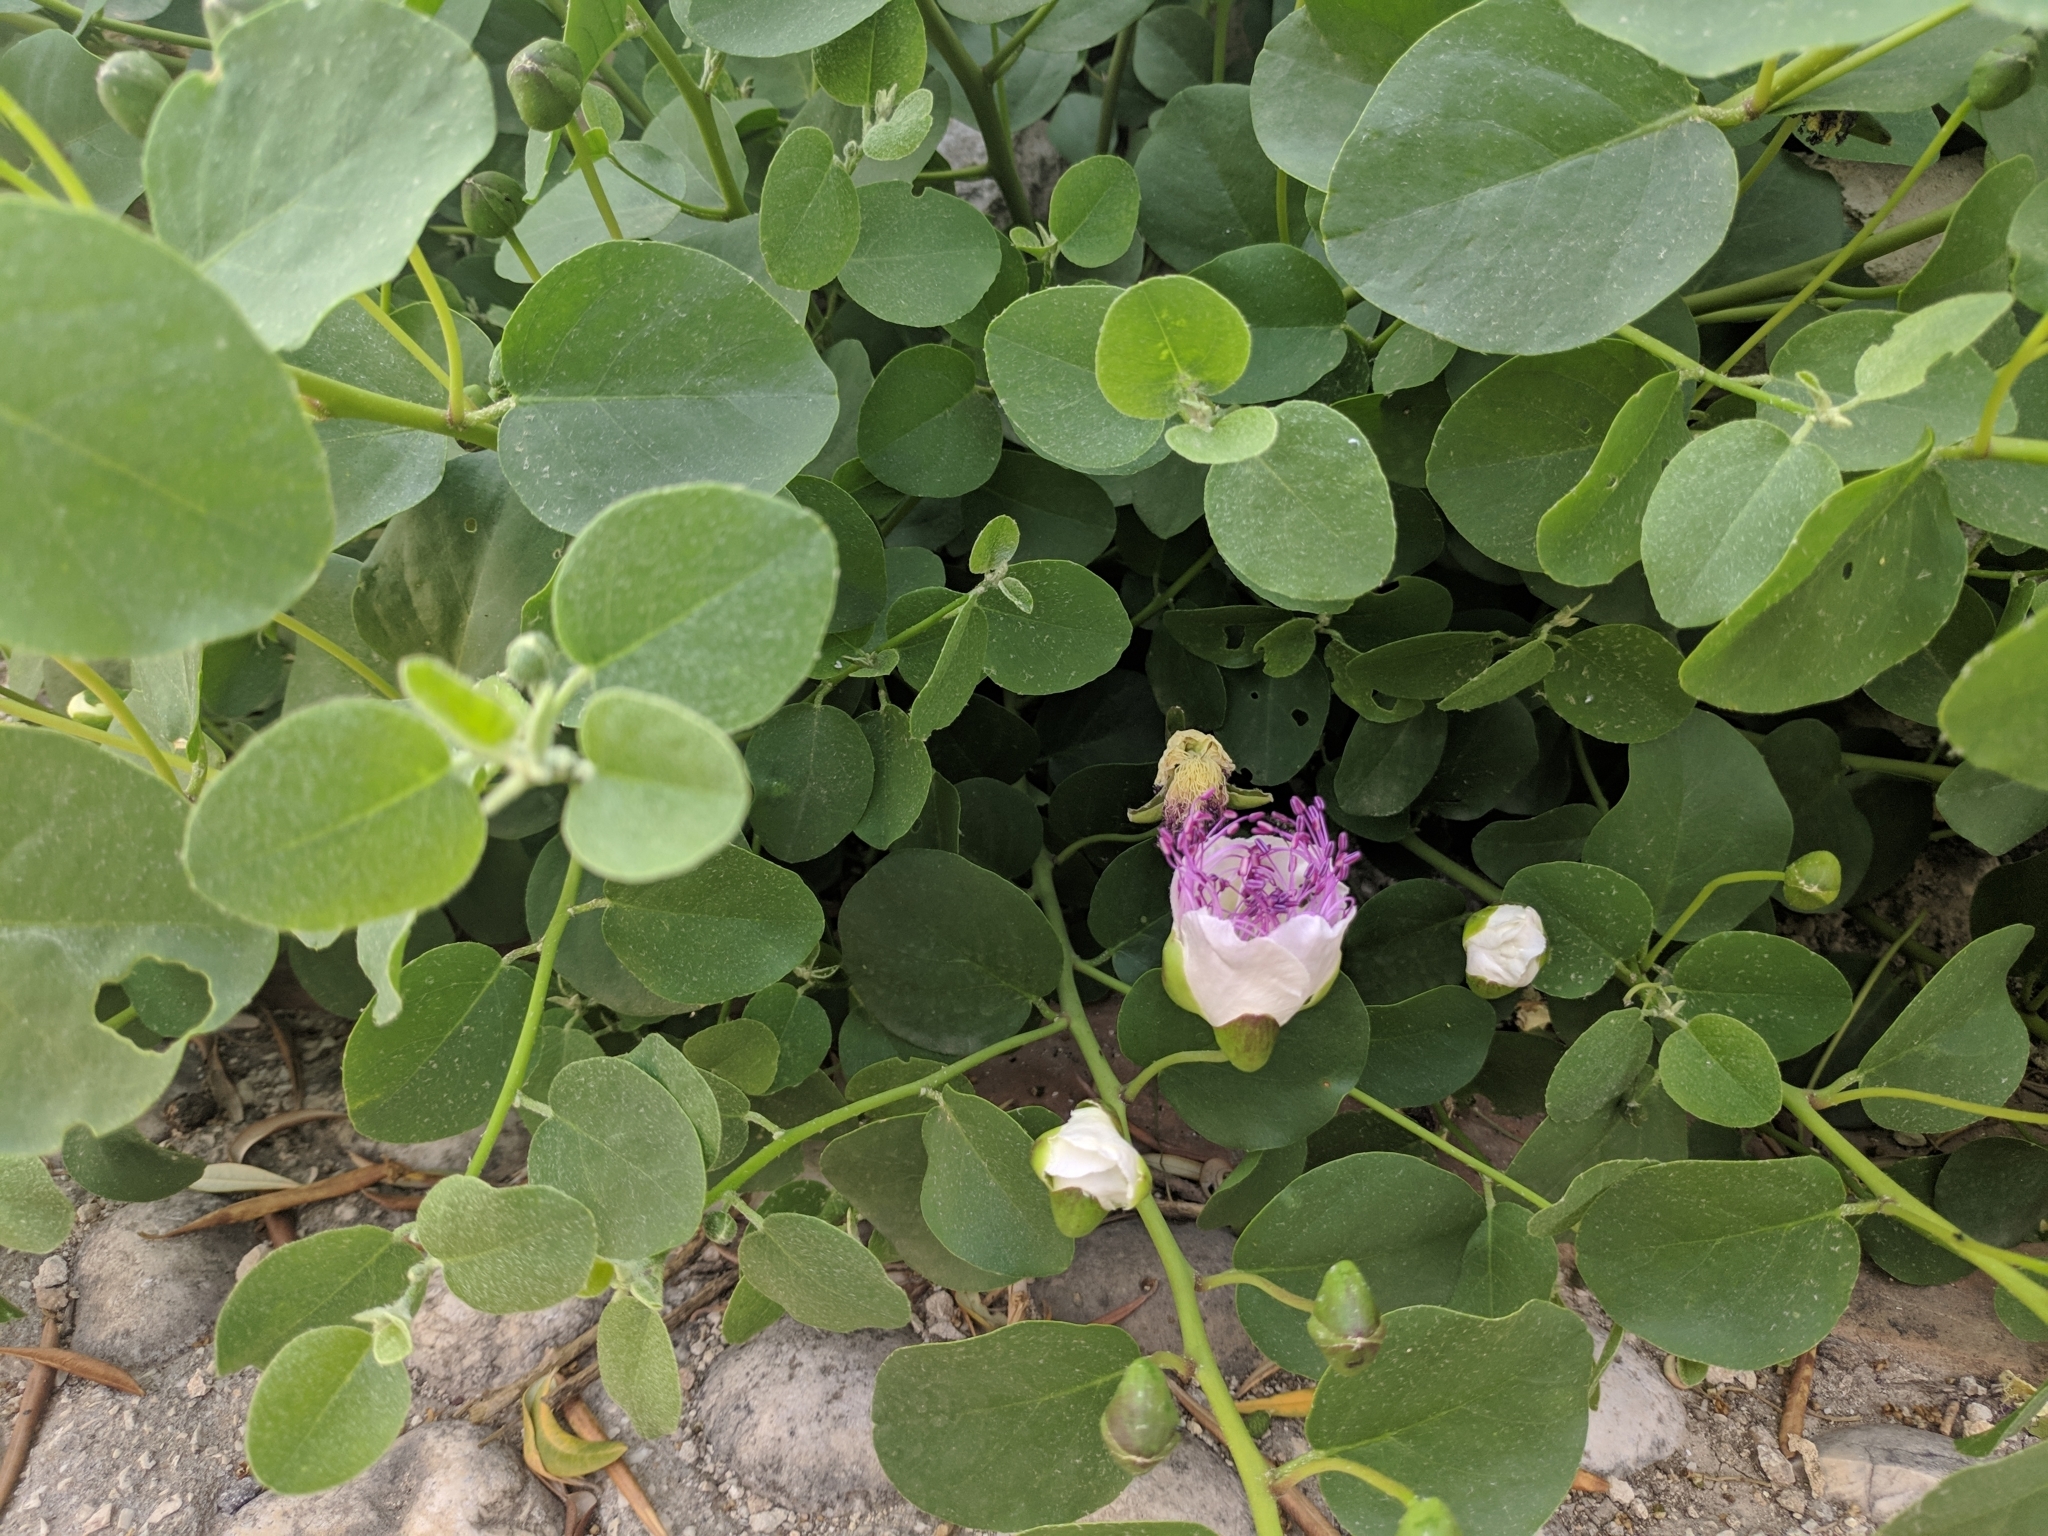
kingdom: Plantae
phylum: Tracheophyta
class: Magnoliopsida
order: Brassicales
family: Capparaceae
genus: Capparis
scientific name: Capparis orientalis
